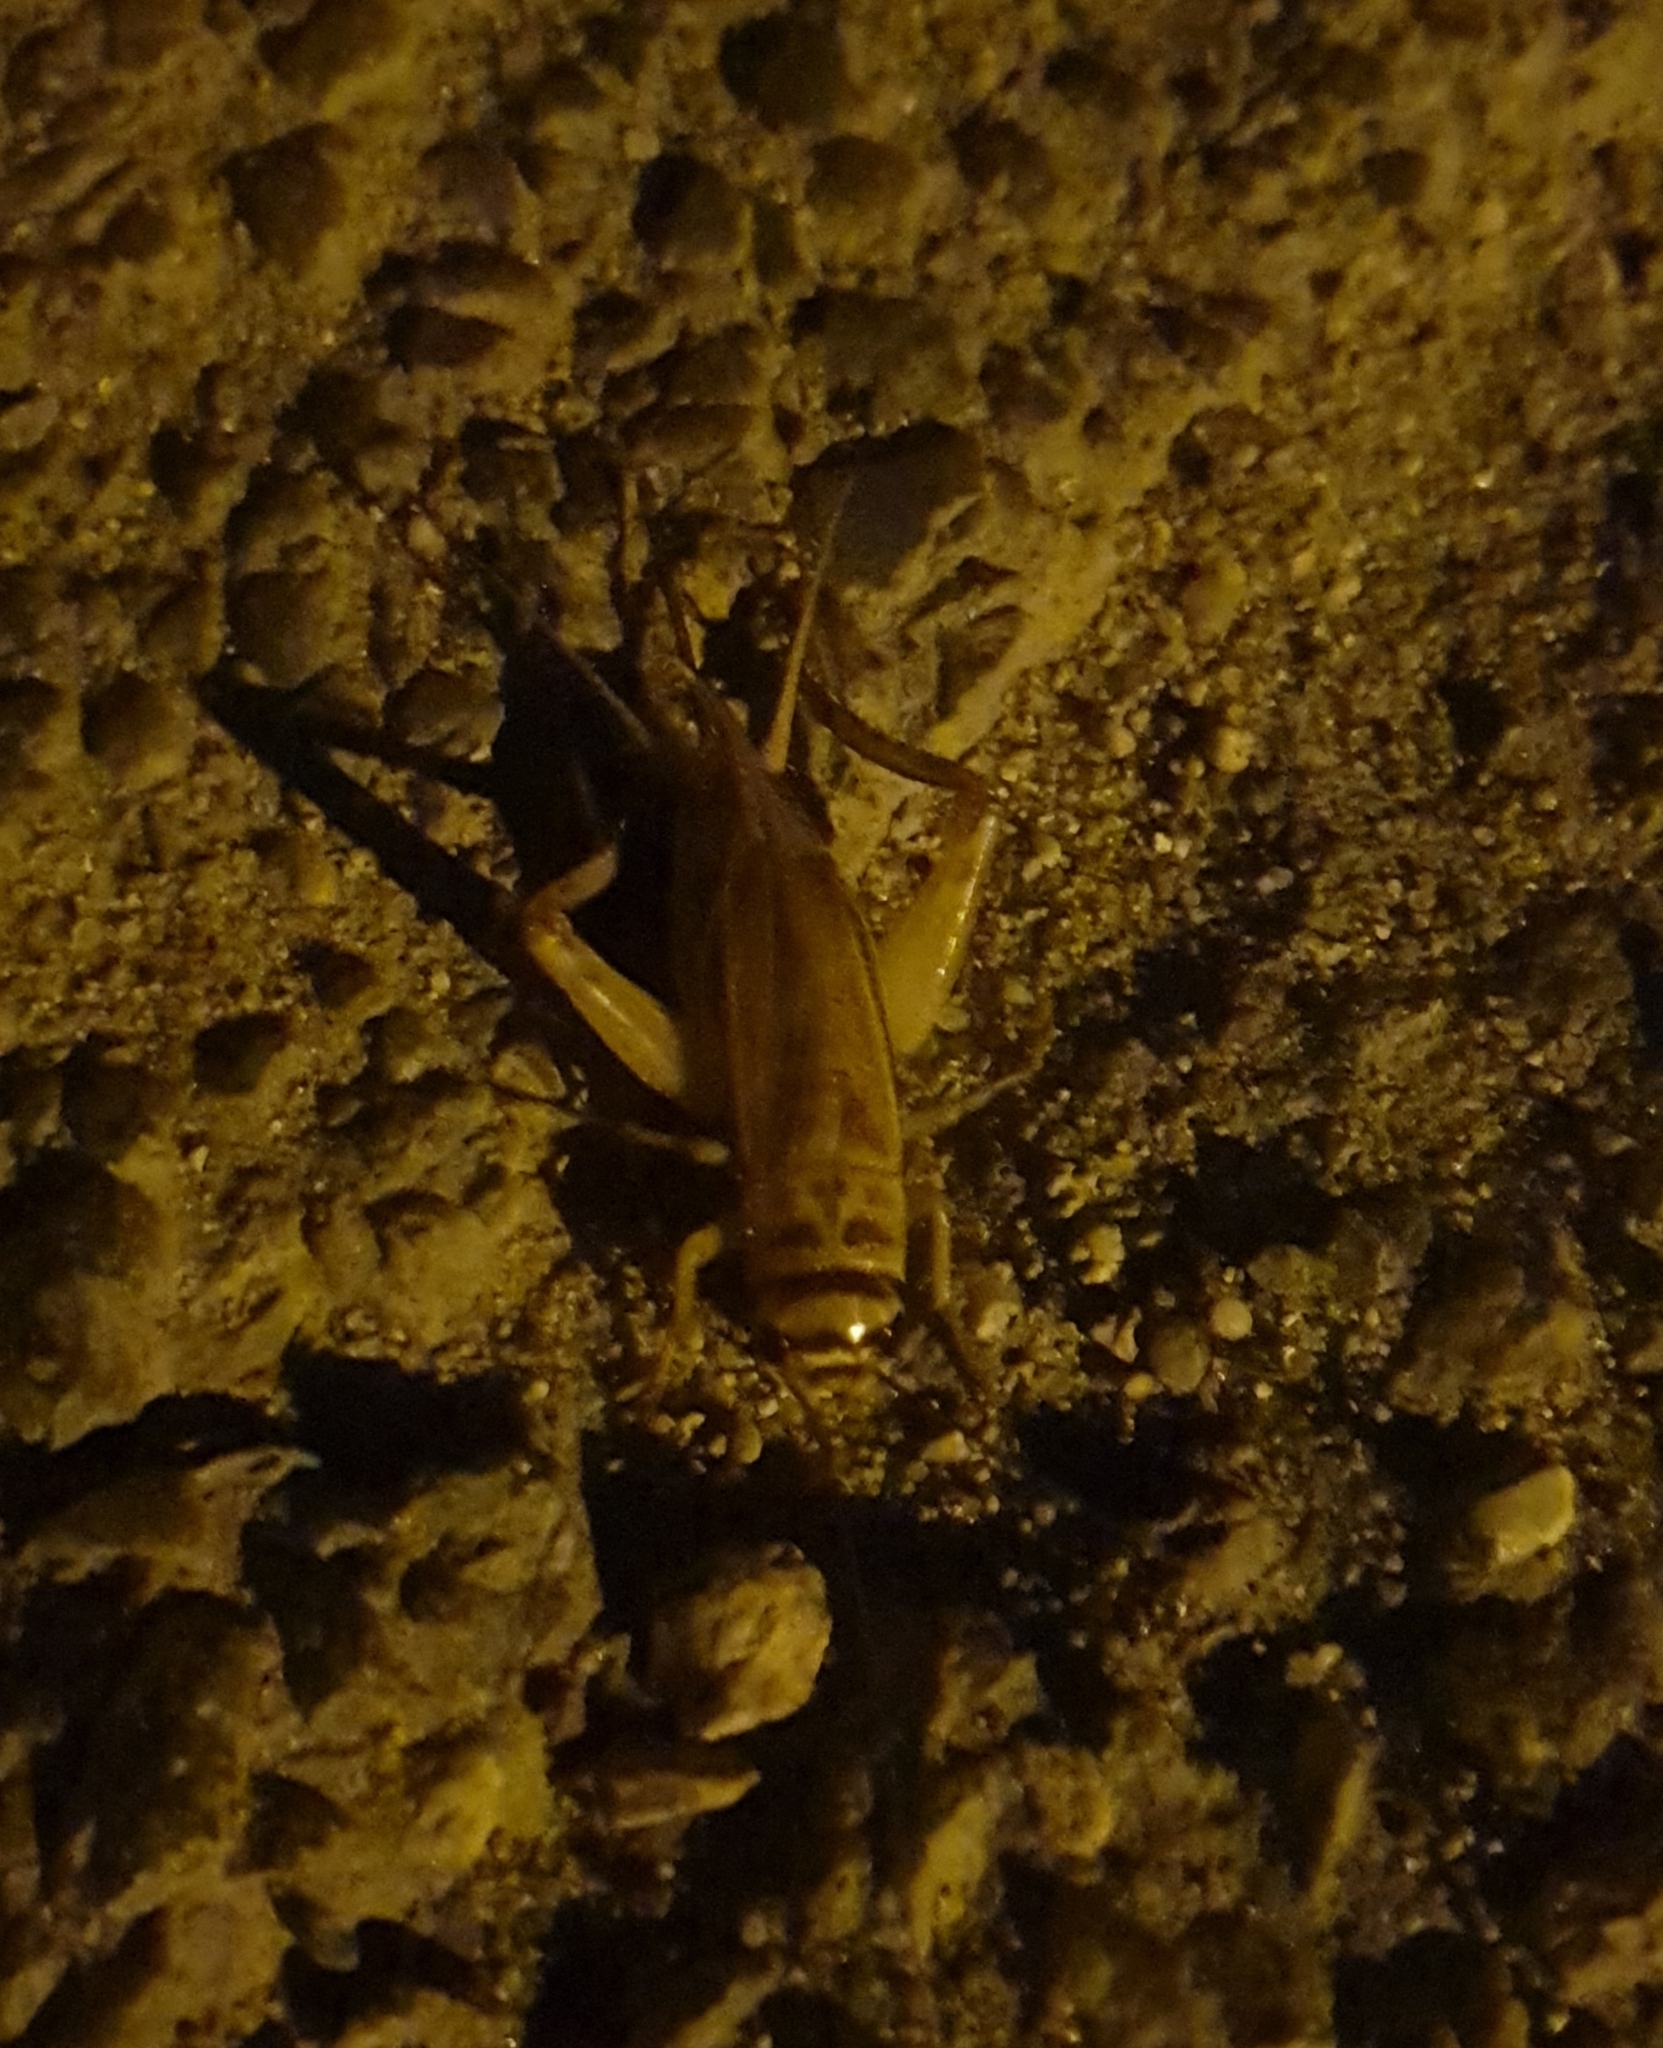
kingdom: Animalia
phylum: Arthropoda
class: Insecta
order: Orthoptera
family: Gryllidae
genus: Acheta
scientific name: Acheta domesticus
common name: House cricket
